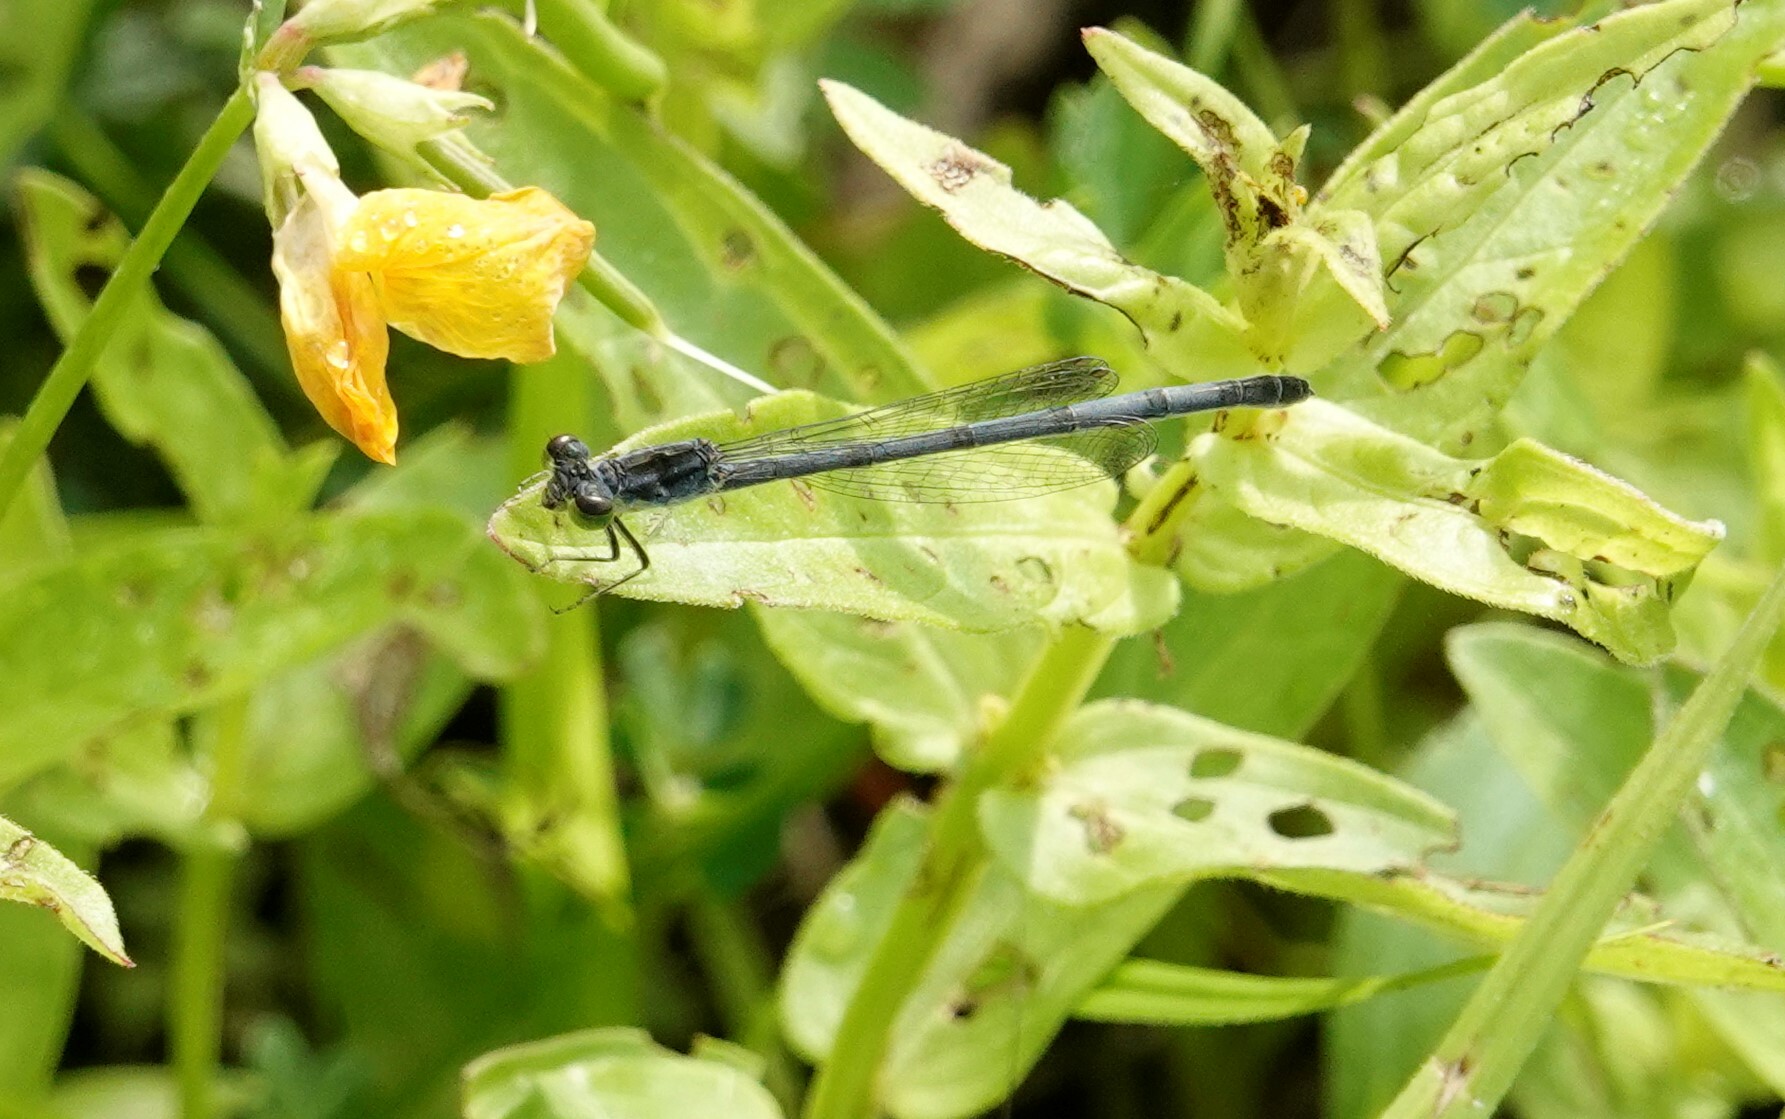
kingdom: Animalia
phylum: Arthropoda
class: Insecta
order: Odonata
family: Coenagrionidae
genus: Ischnura
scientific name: Ischnura verticalis
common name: Eastern forktail
